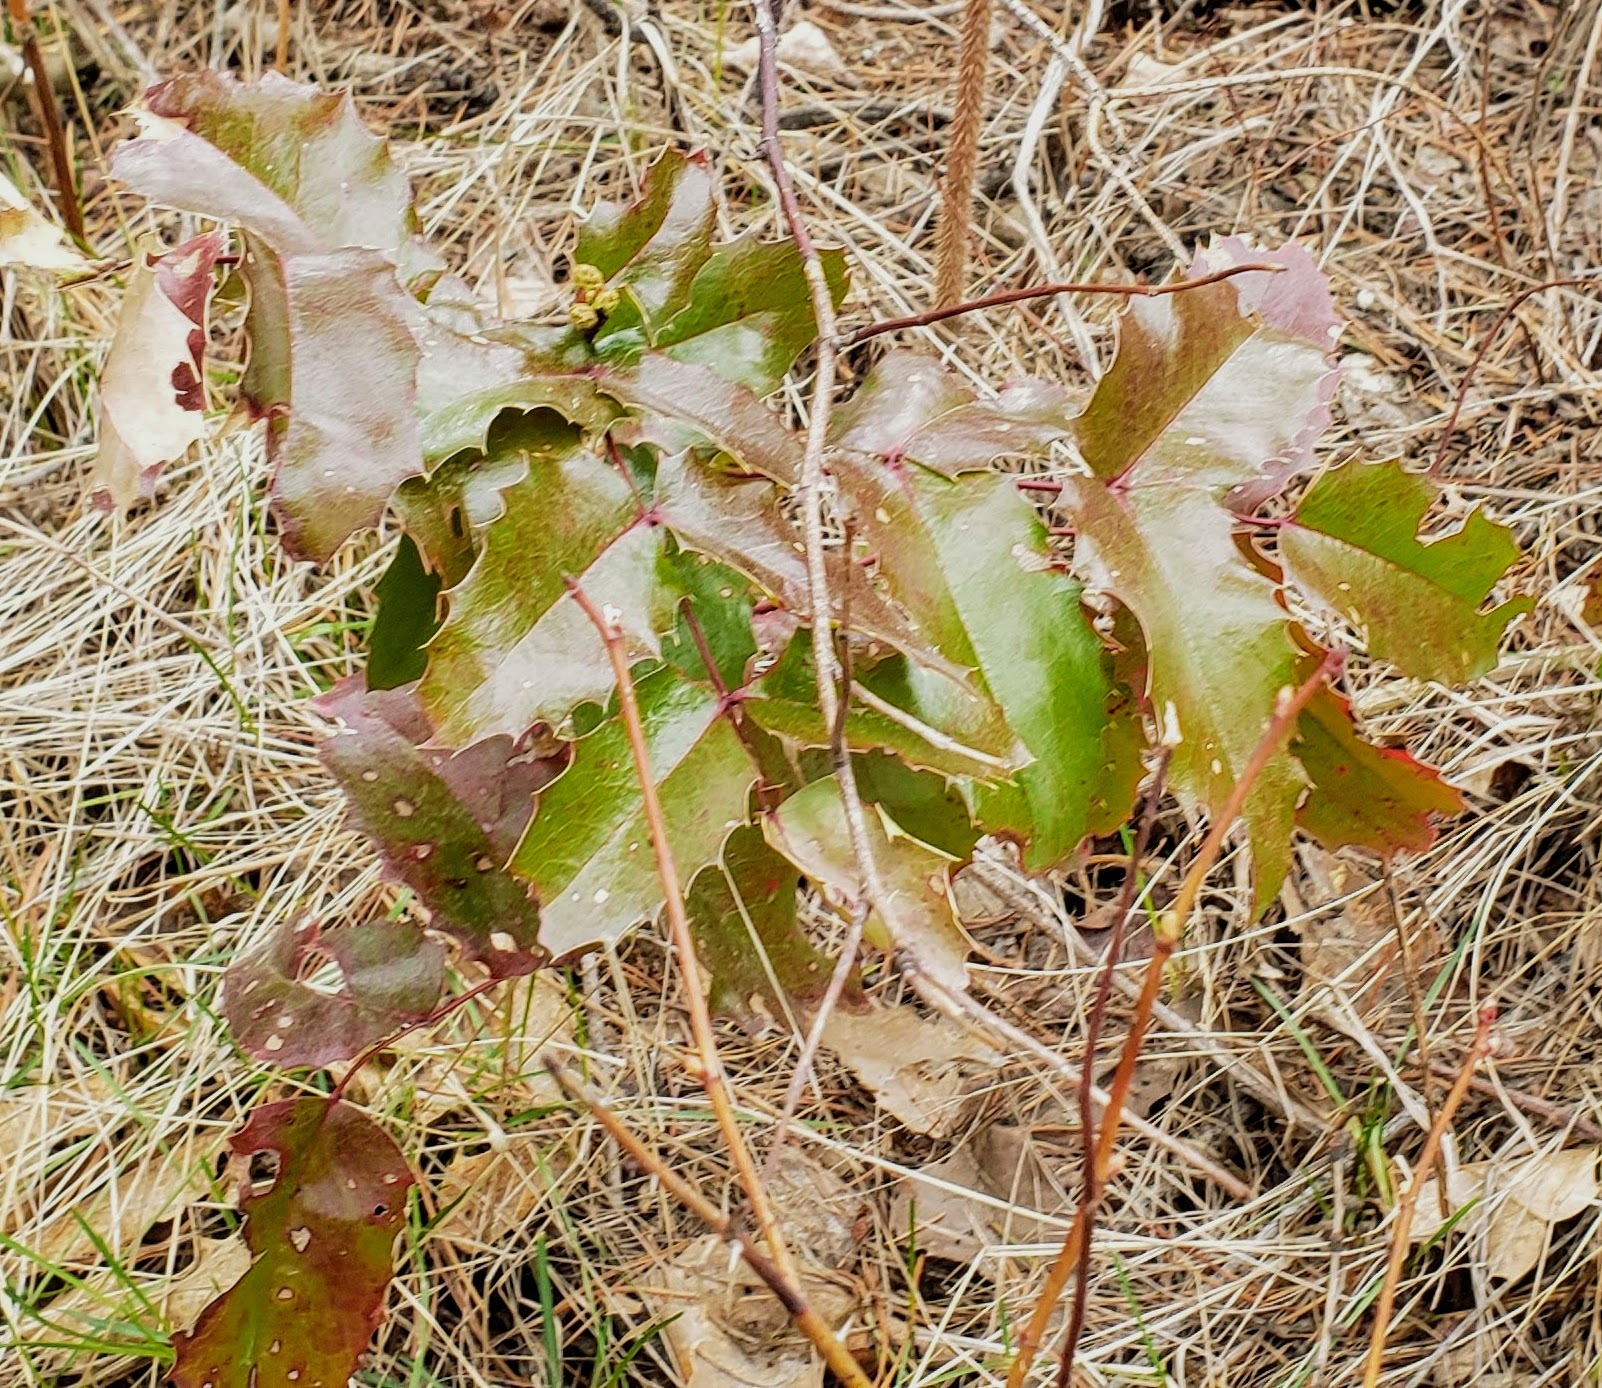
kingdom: Plantae
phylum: Tracheophyta
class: Magnoliopsida
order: Ranunculales
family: Berberidaceae
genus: Mahonia
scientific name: Mahonia aquifolium
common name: Oregon-grape
